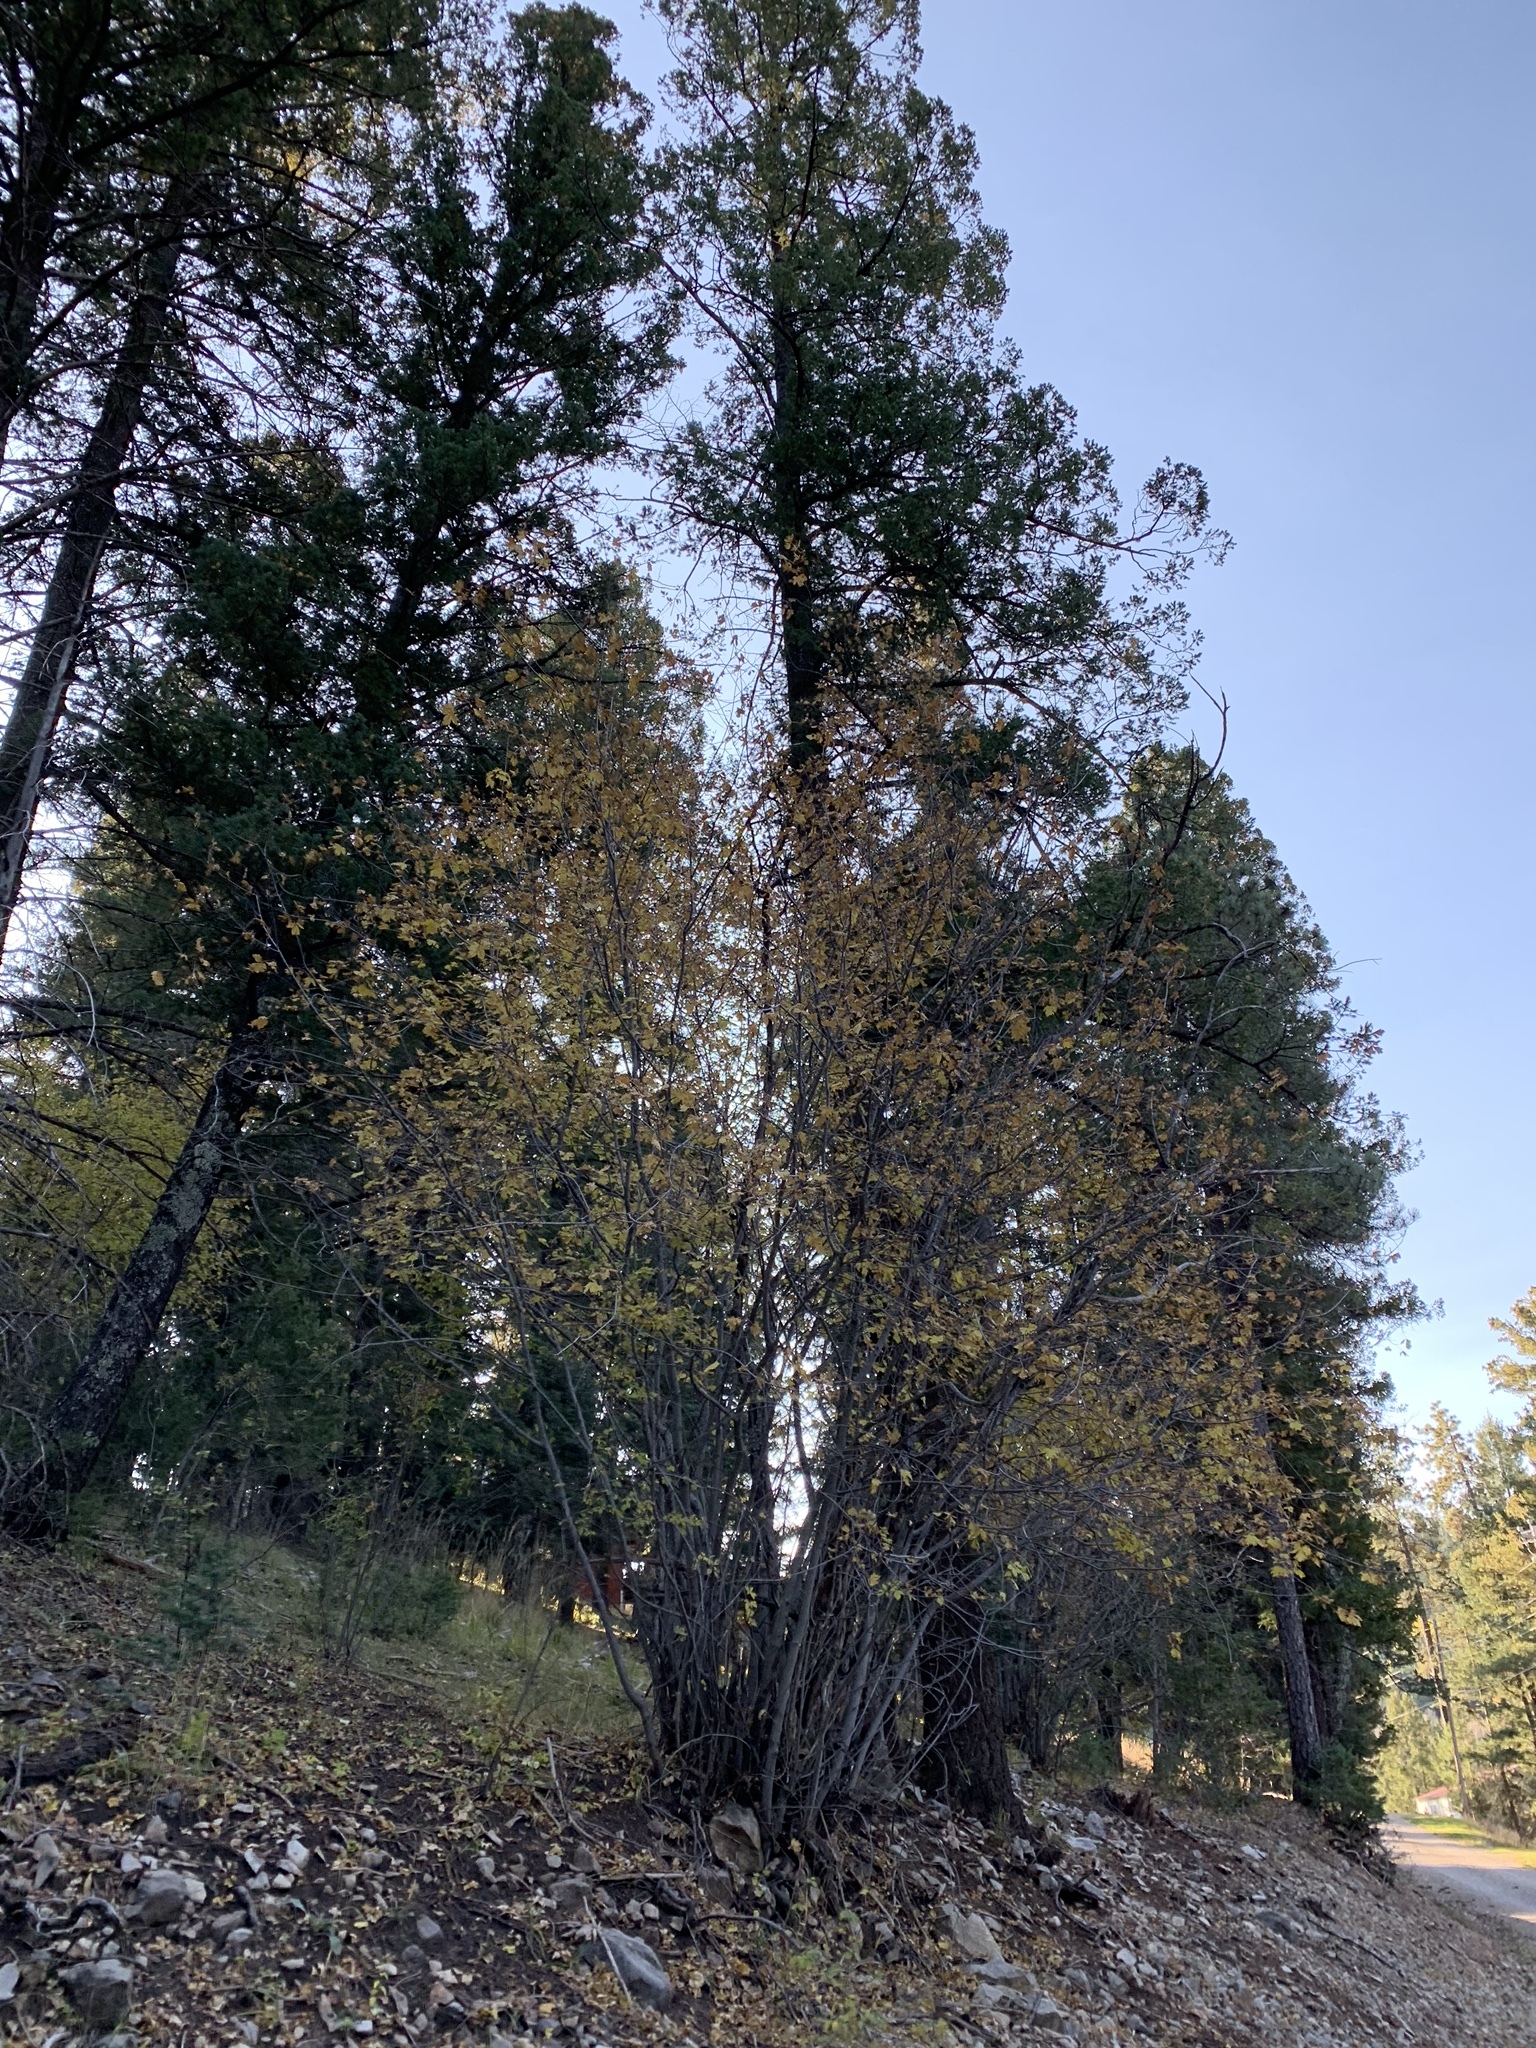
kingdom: Plantae
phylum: Tracheophyta
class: Magnoliopsida
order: Sapindales
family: Sapindaceae
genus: Acer
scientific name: Acer glabrum
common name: Rocky mountain maple
